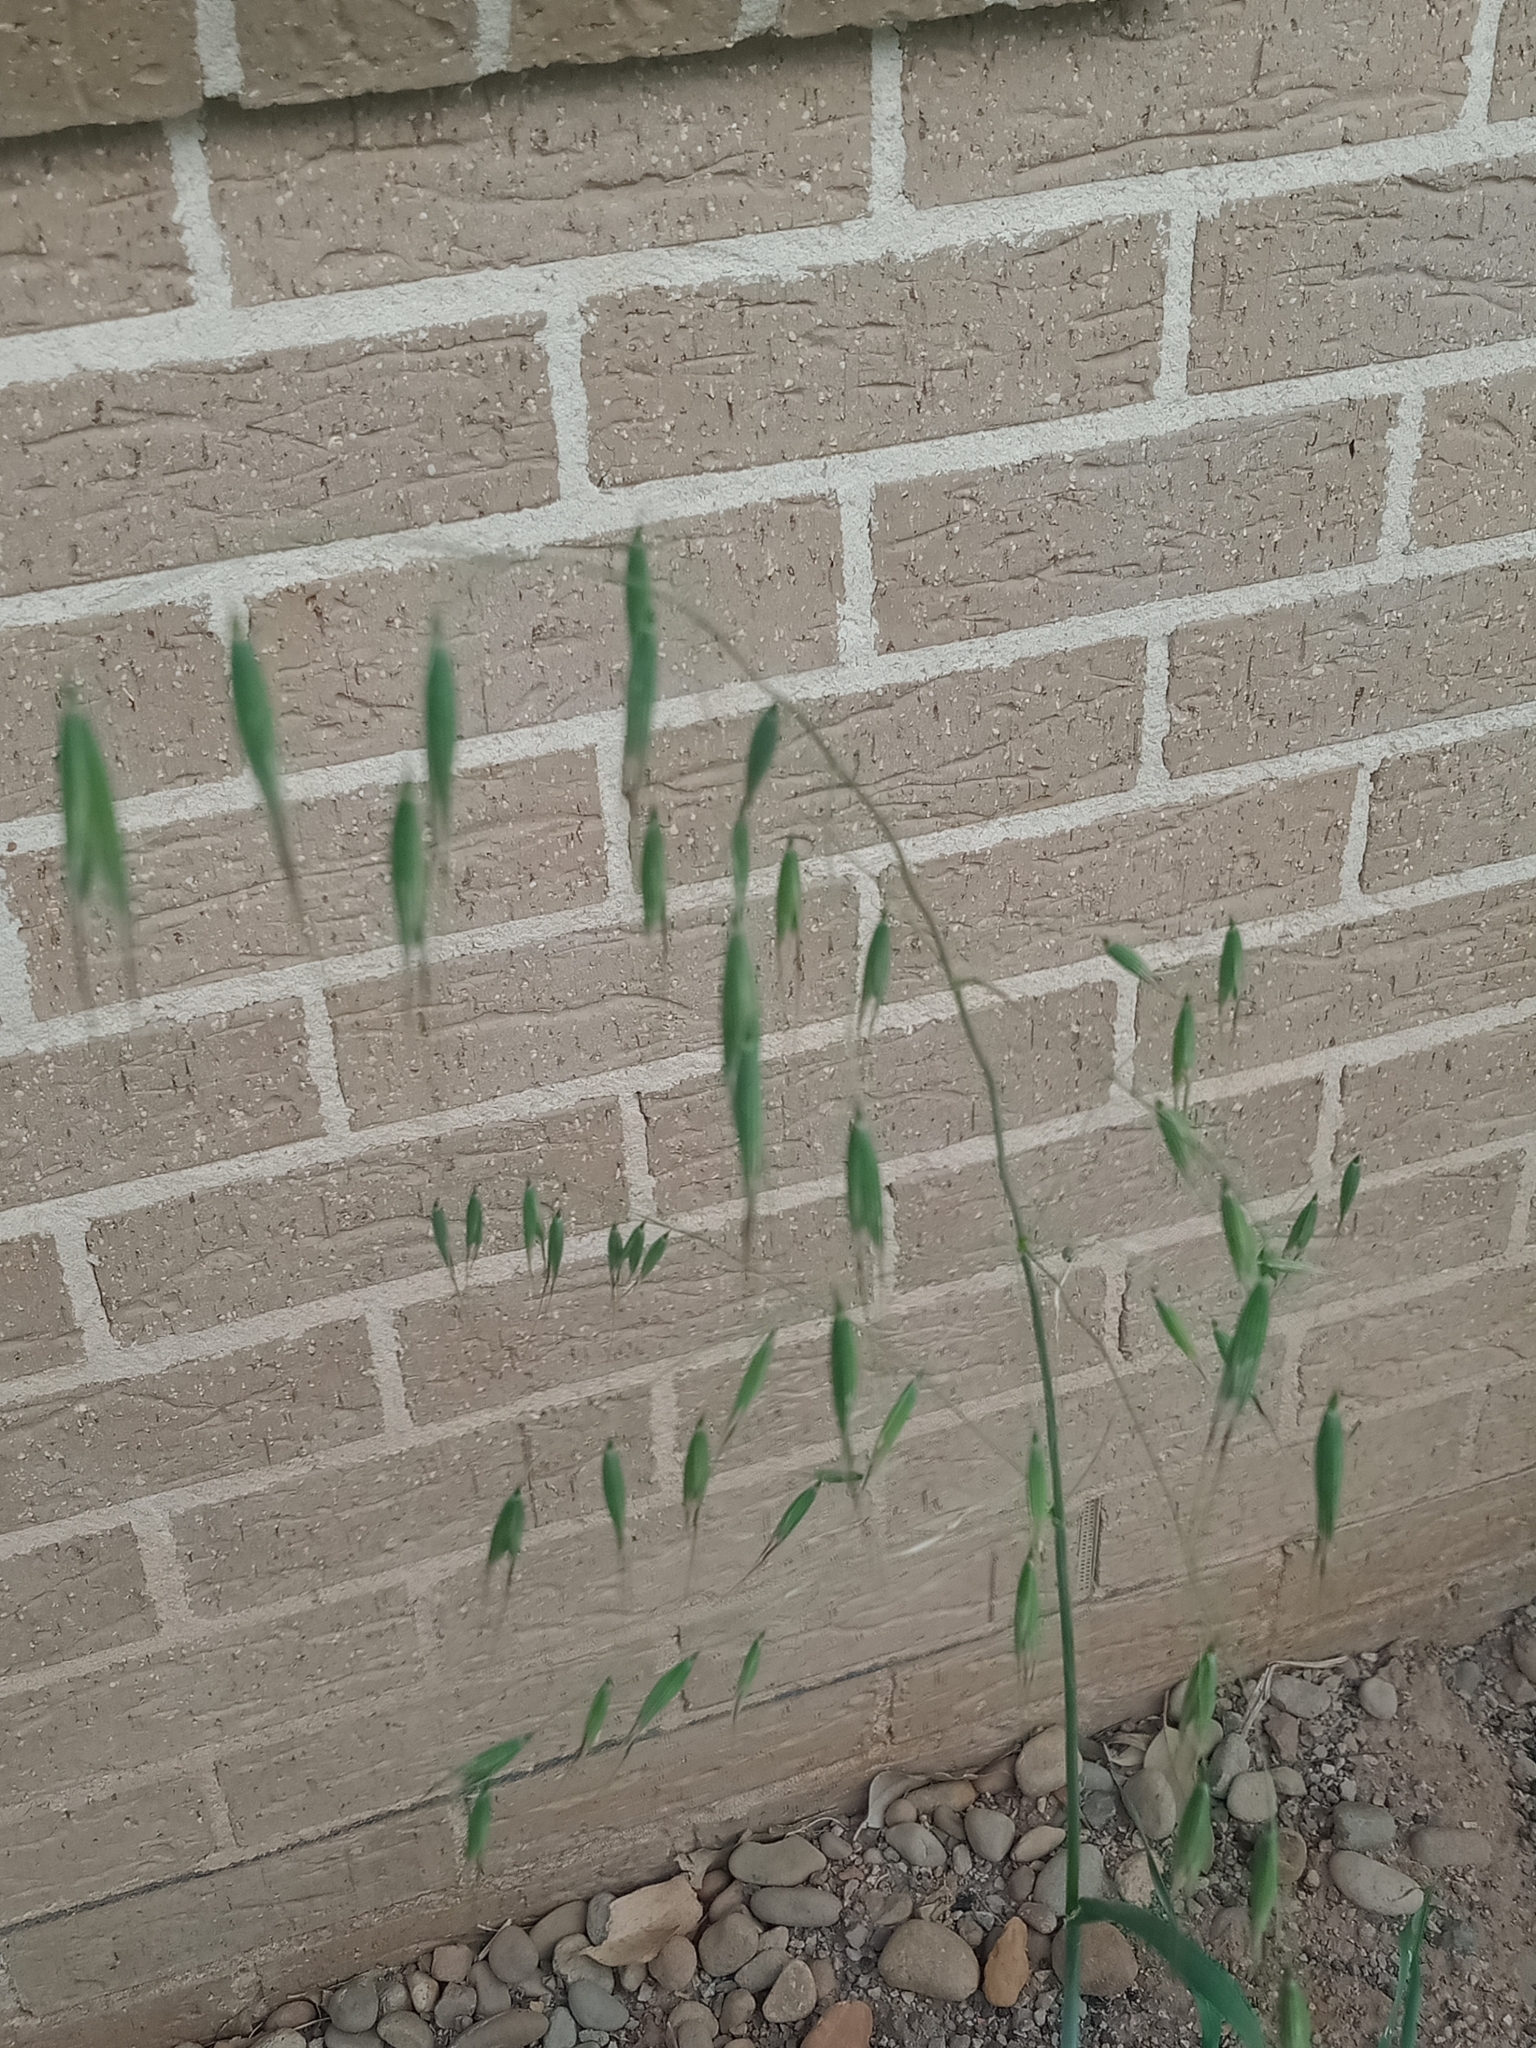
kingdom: Plantae
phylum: Tracheophyta
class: Liliopsida
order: Poales
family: Poaceae
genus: Avena
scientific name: Avena fatua
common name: Wild oat
